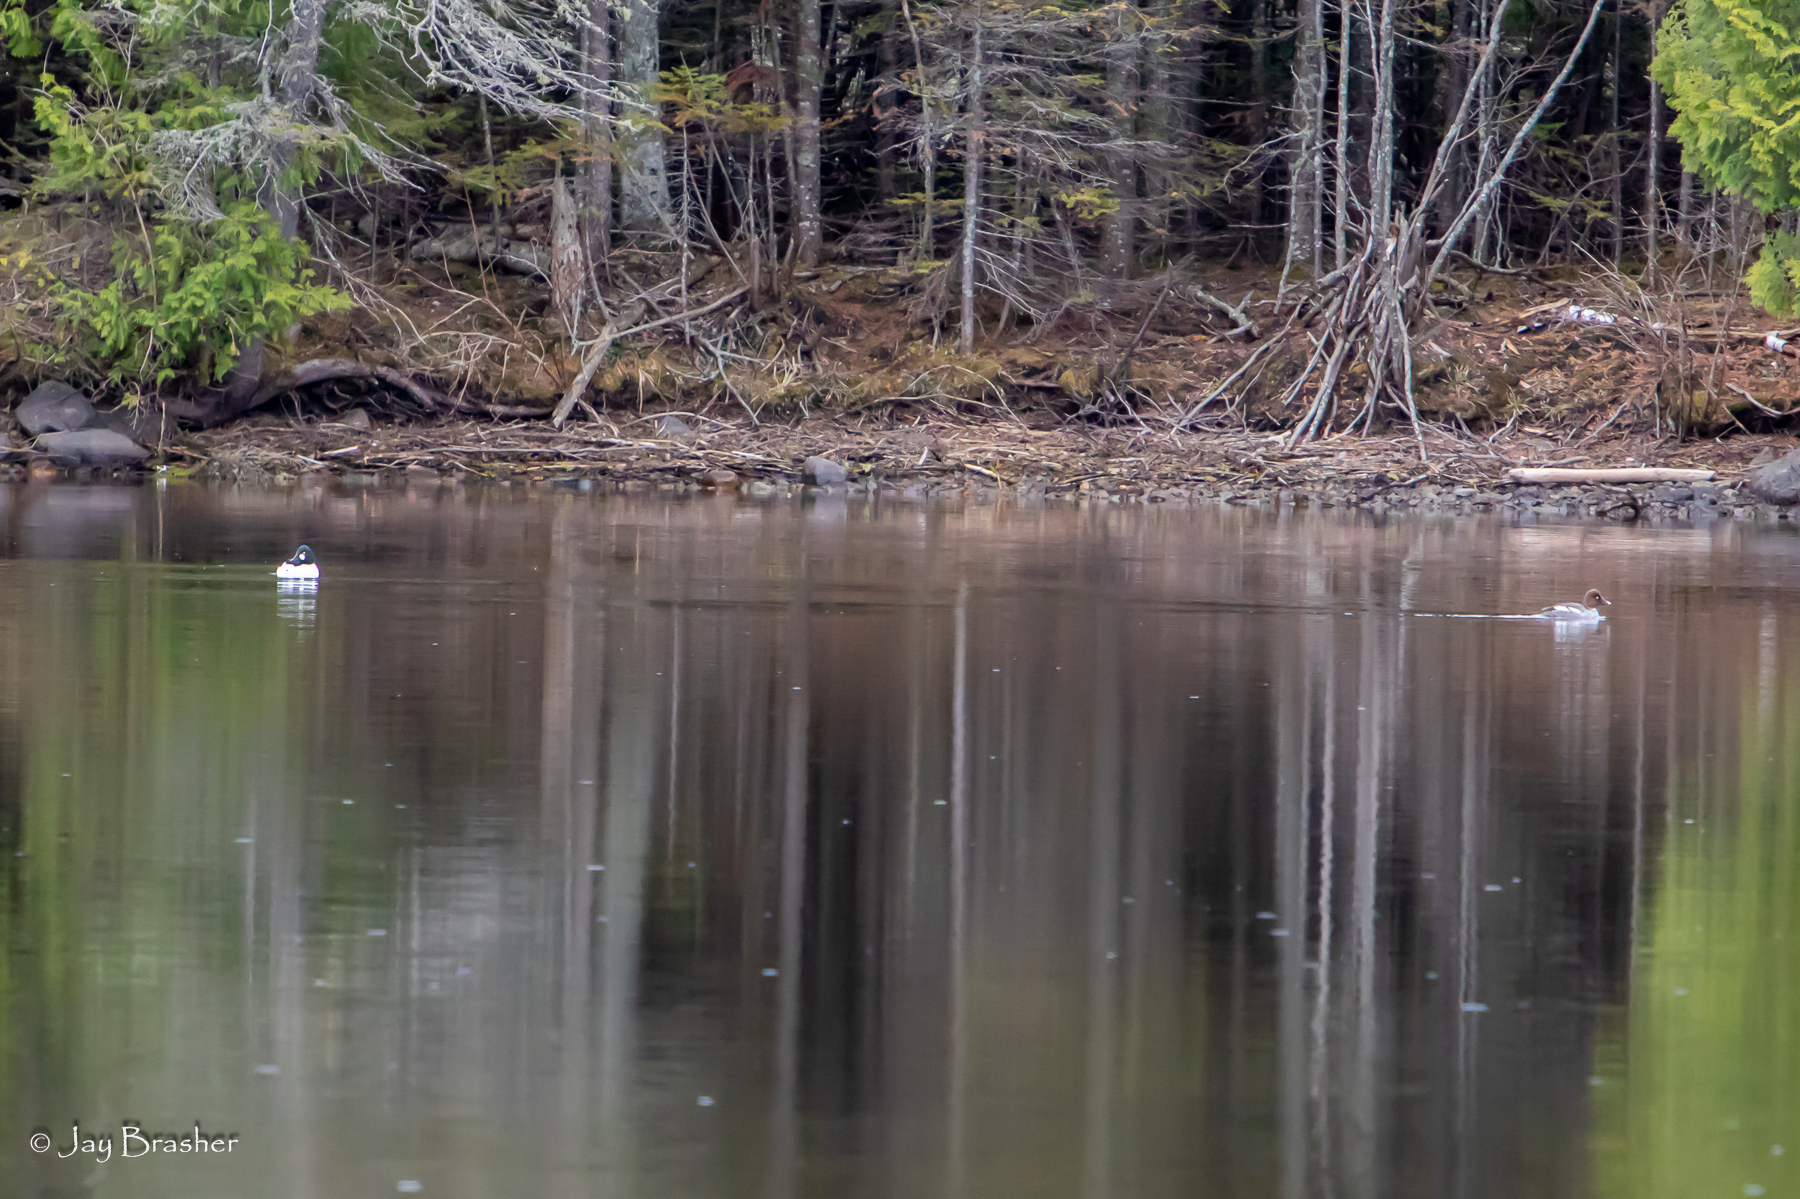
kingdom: Animalia
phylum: Chordata
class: Aves
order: Anseriformes
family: Anatidae
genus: Bucephala
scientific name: Bucephala clangula
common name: Common goldeneye
